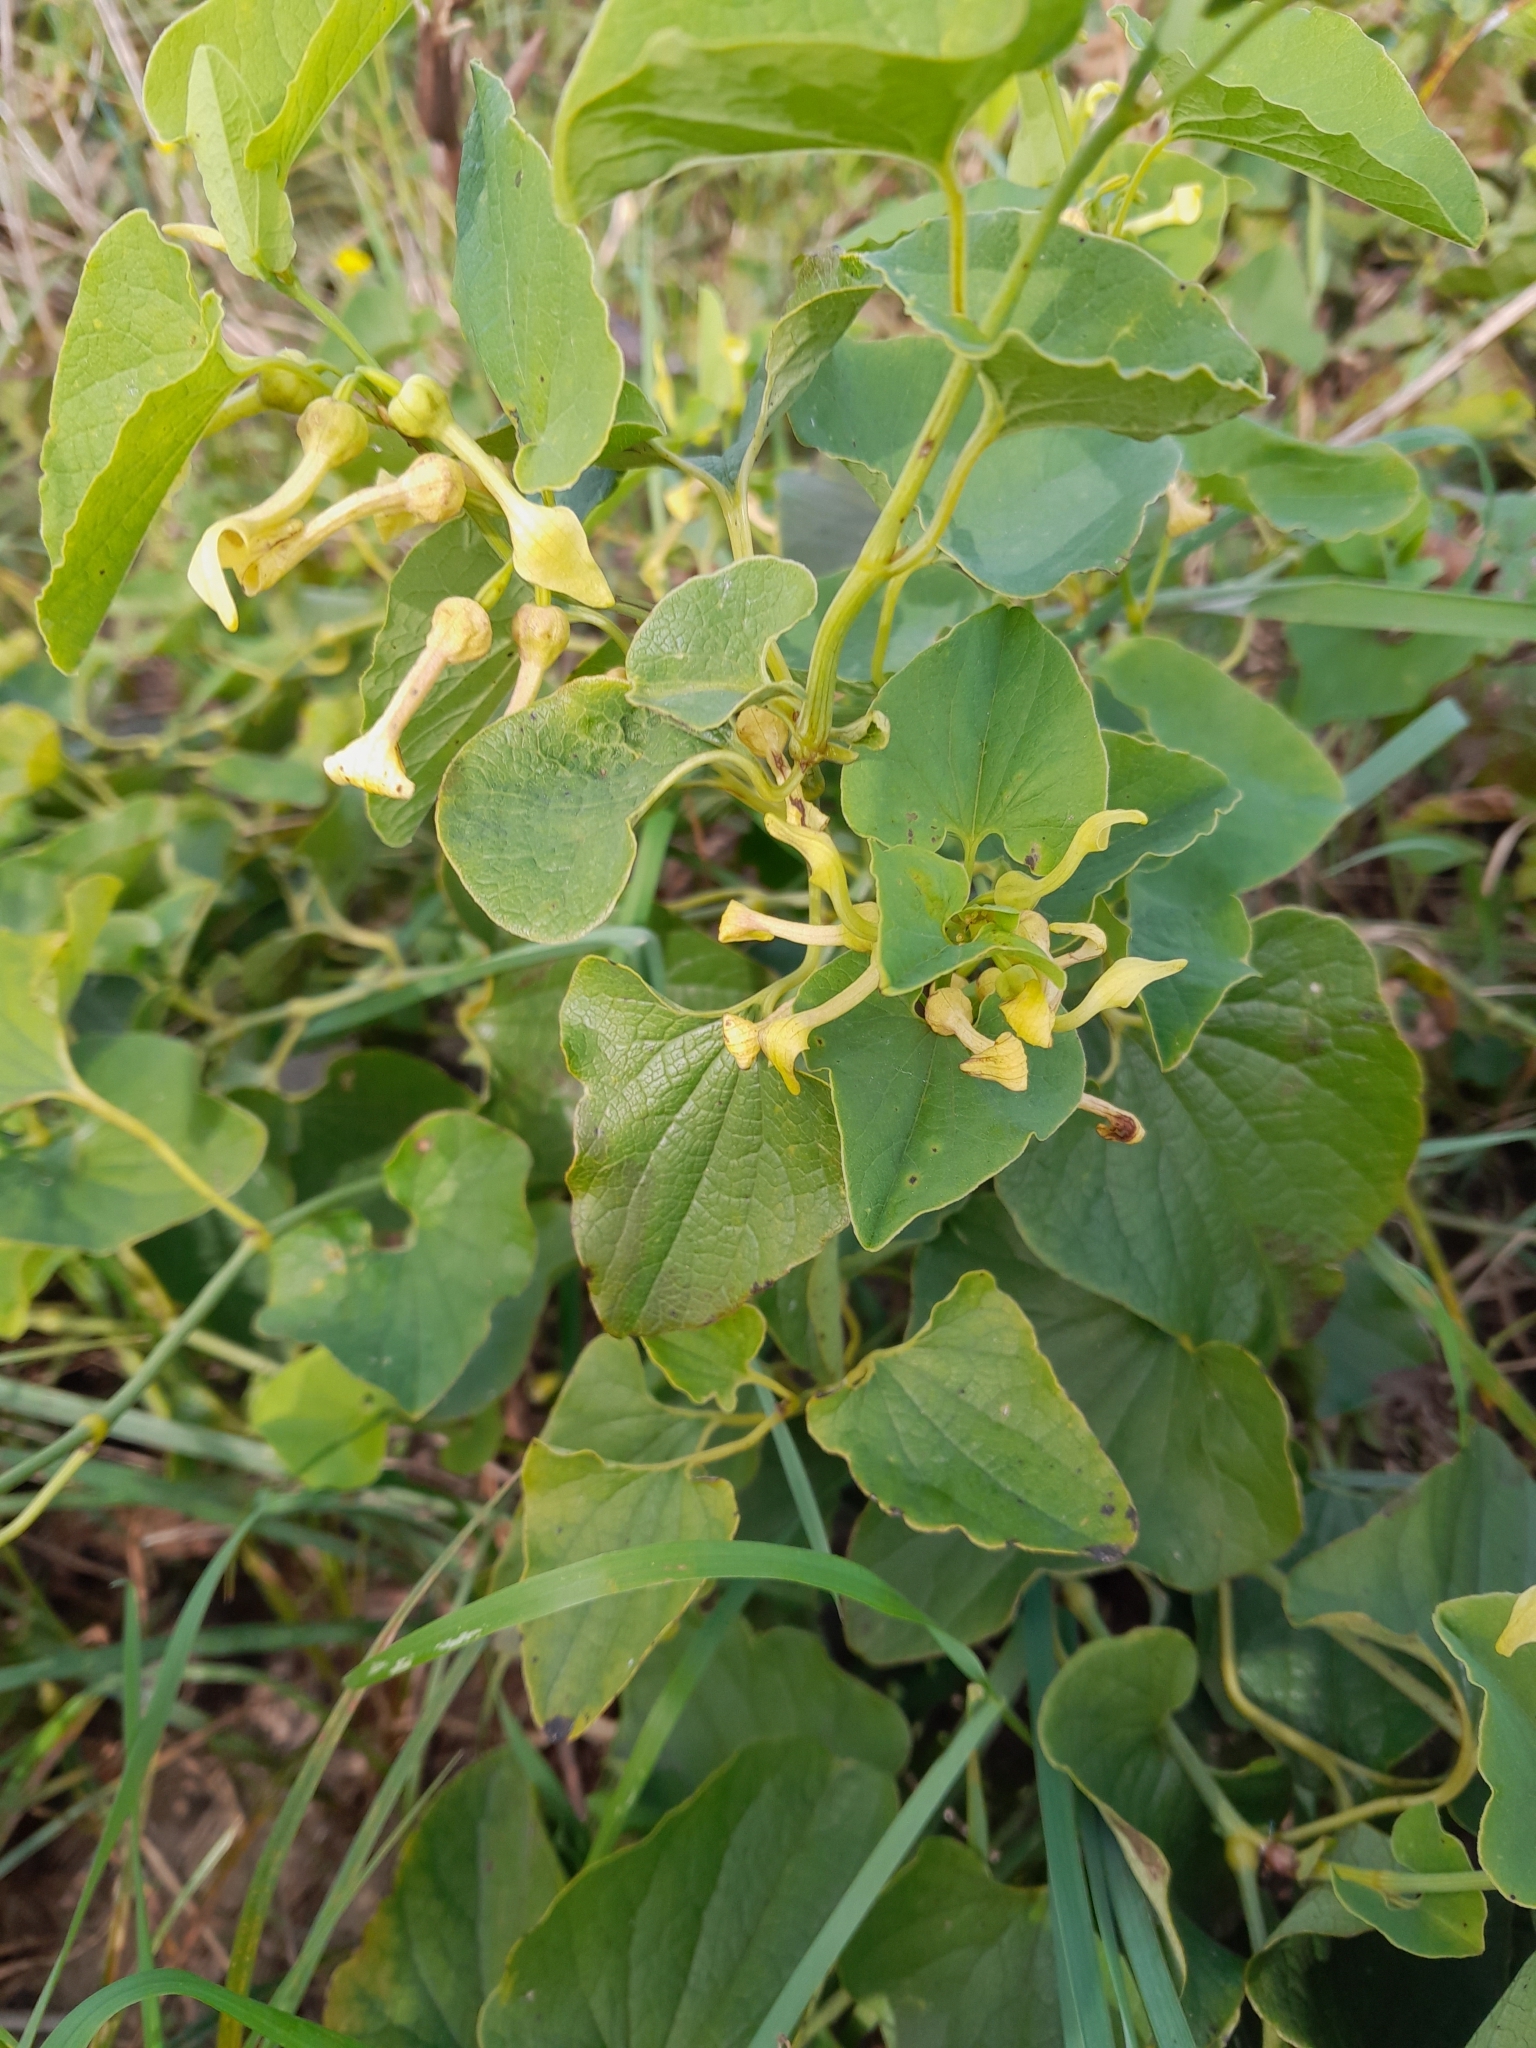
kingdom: Plantae
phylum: Tracheophyta
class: Magnoliopsida
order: Piperales
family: Aristolochiaceae
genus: Aristolochia
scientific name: Aristolochia clematitis
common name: Birthwort
